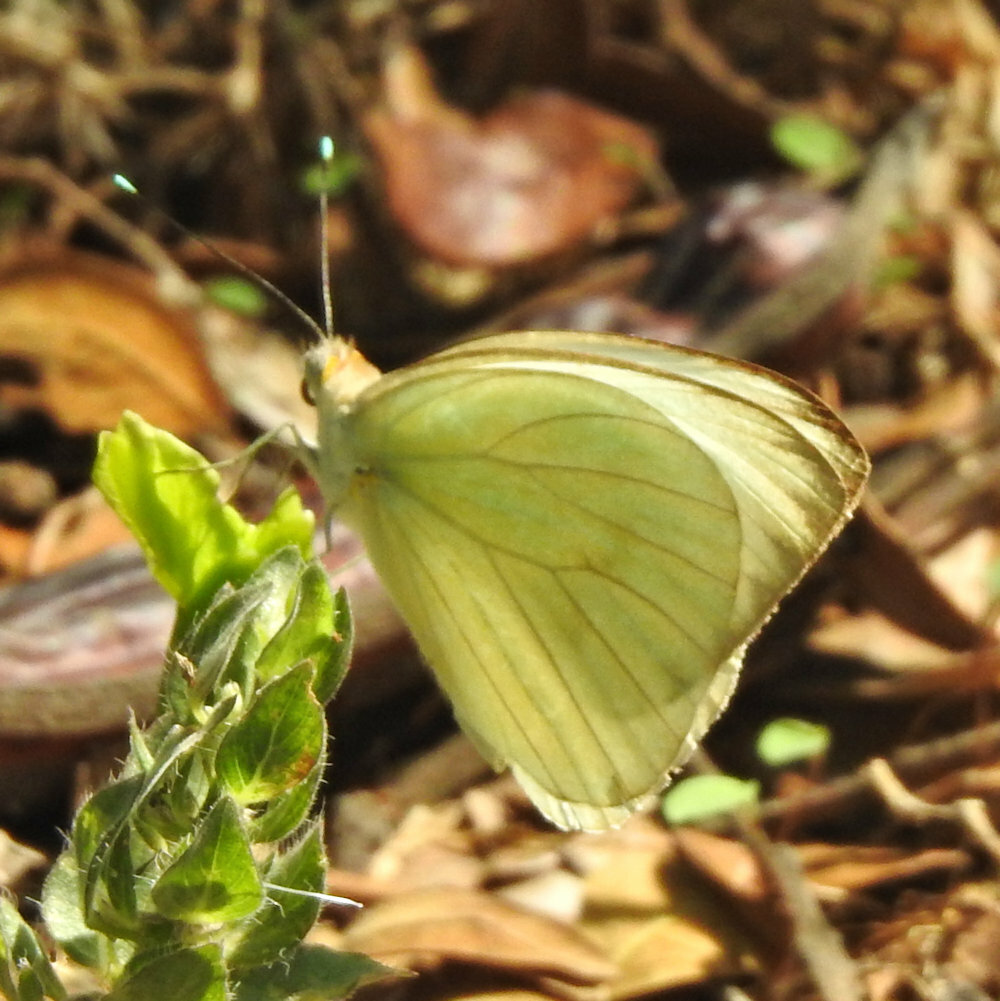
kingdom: Animalia
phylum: Arthropoda
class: Insecta
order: Lepidoptera
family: Pieridae
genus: Ascia
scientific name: Ascia monuste
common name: Great southern white
